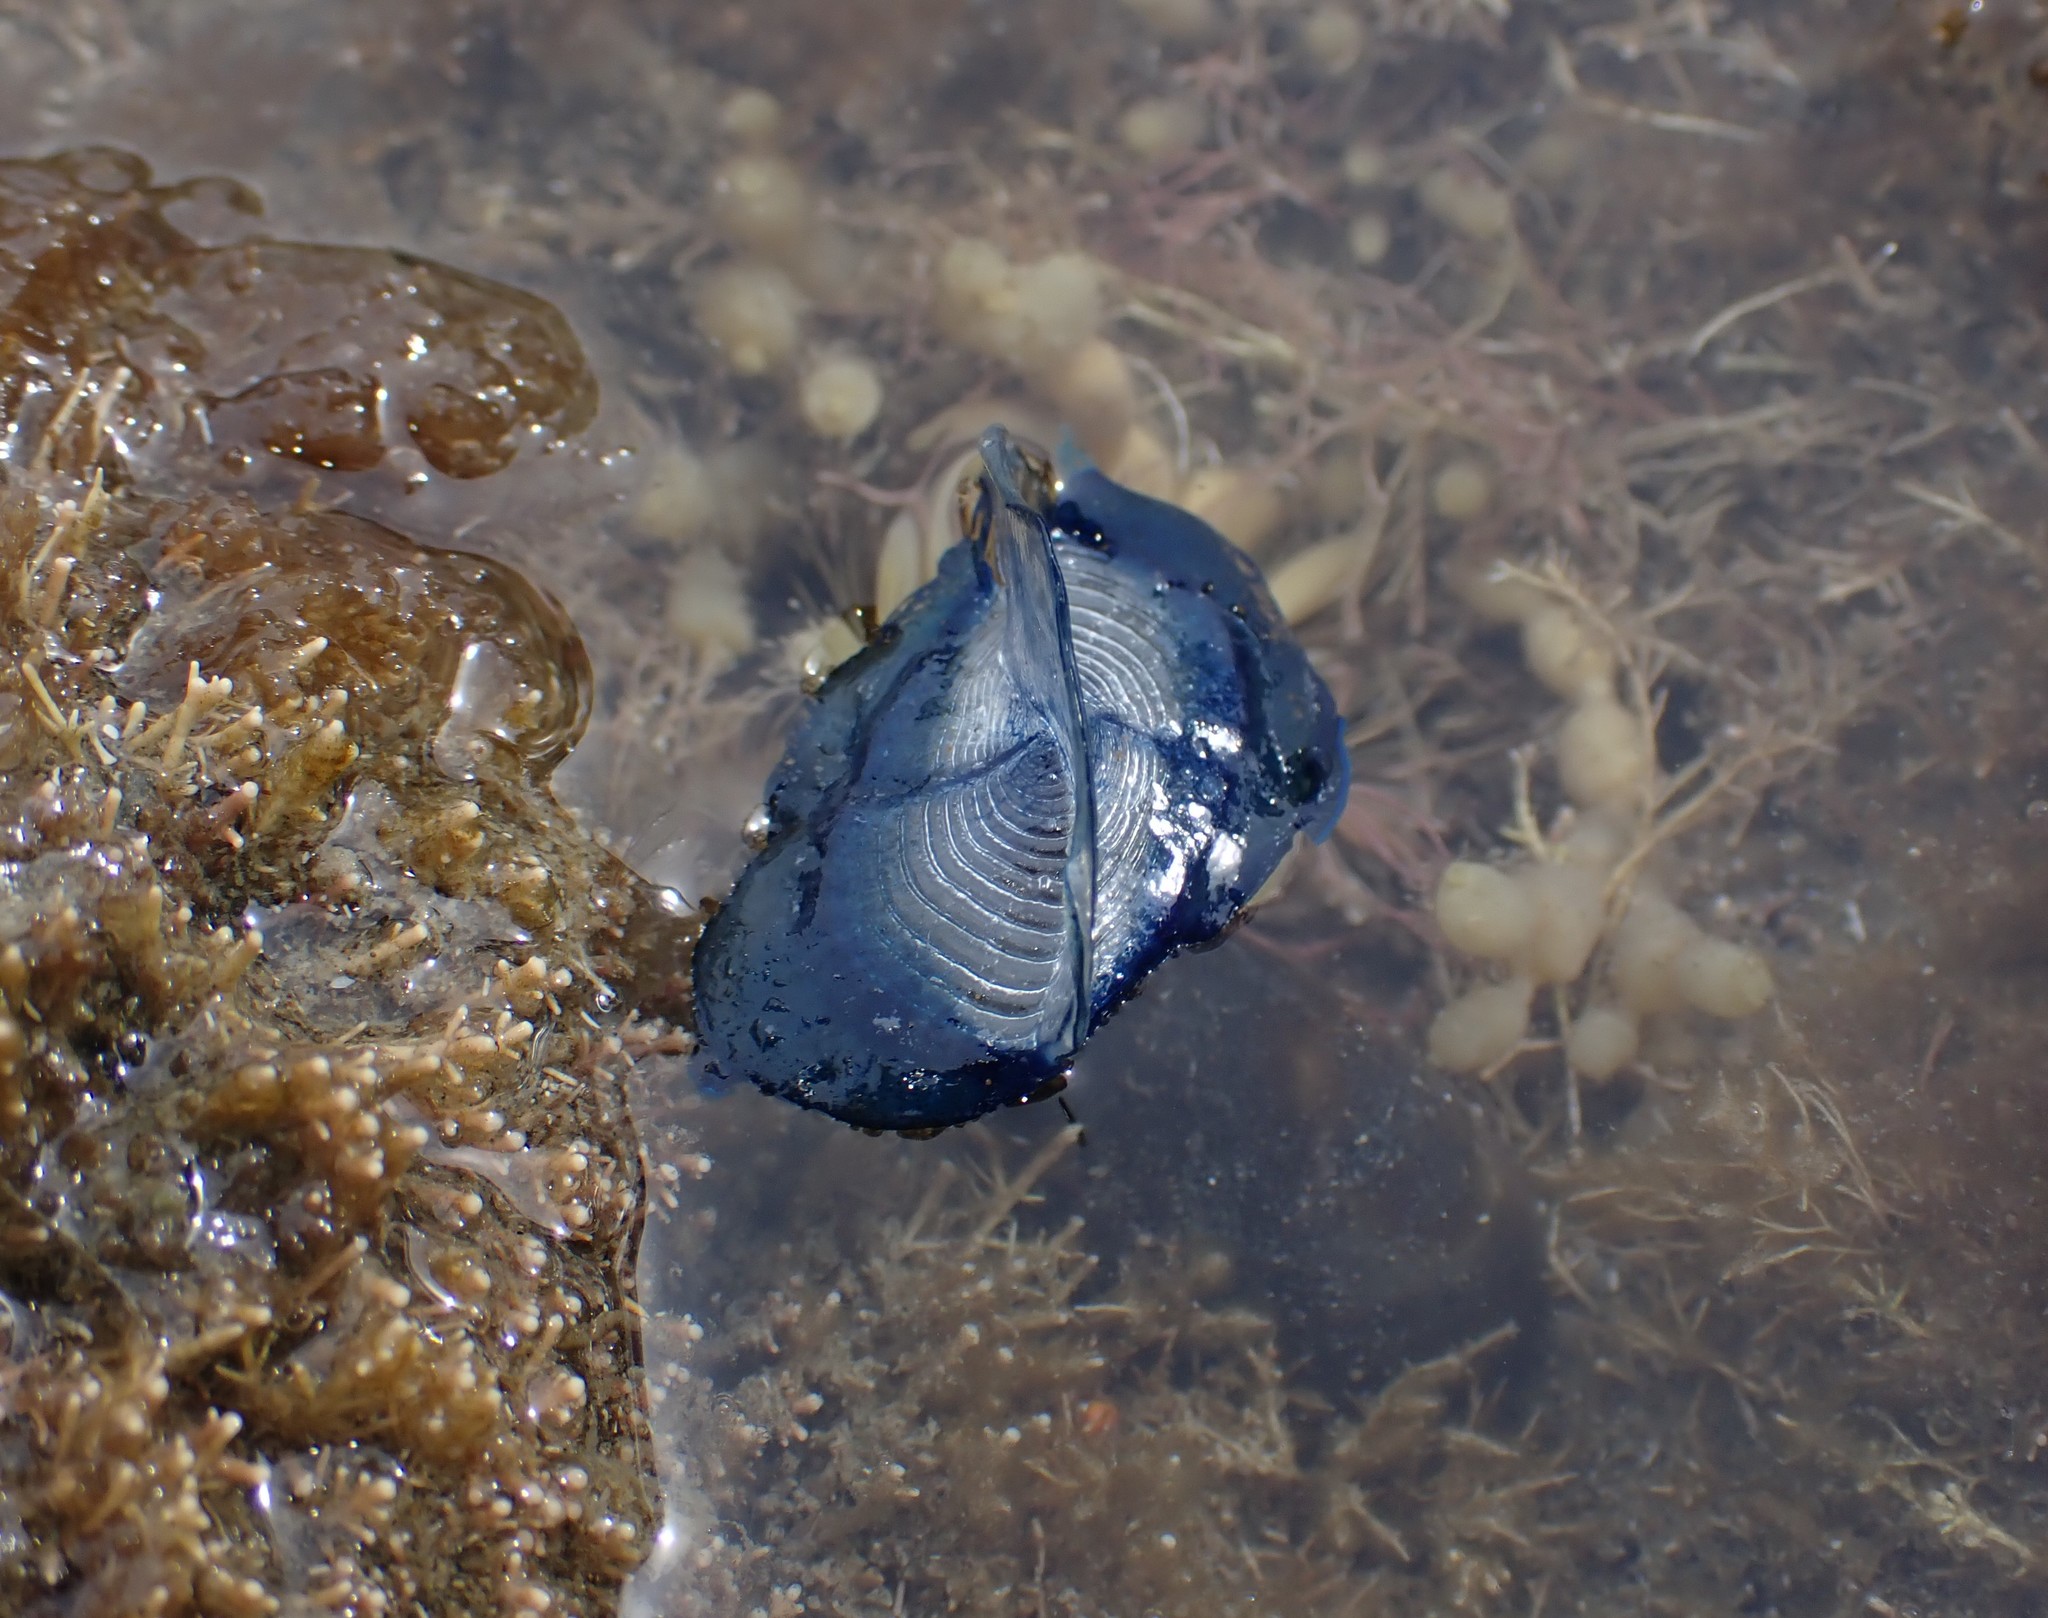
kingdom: Animalia
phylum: Cnidaria
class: Hydrozoa
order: Anthoathecata
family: Porpitidae
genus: Velella
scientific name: Velella velella
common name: By-the-wind-sailor
